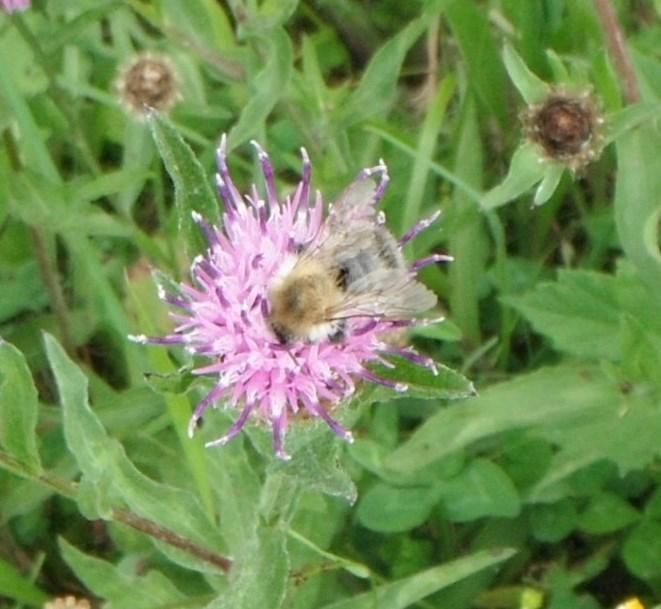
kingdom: Animalia
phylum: Arthropoda
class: Insecta
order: Hymenoptera
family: Apidae
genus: Bombus
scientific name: Bombus pascuorum
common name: Common carder bee
